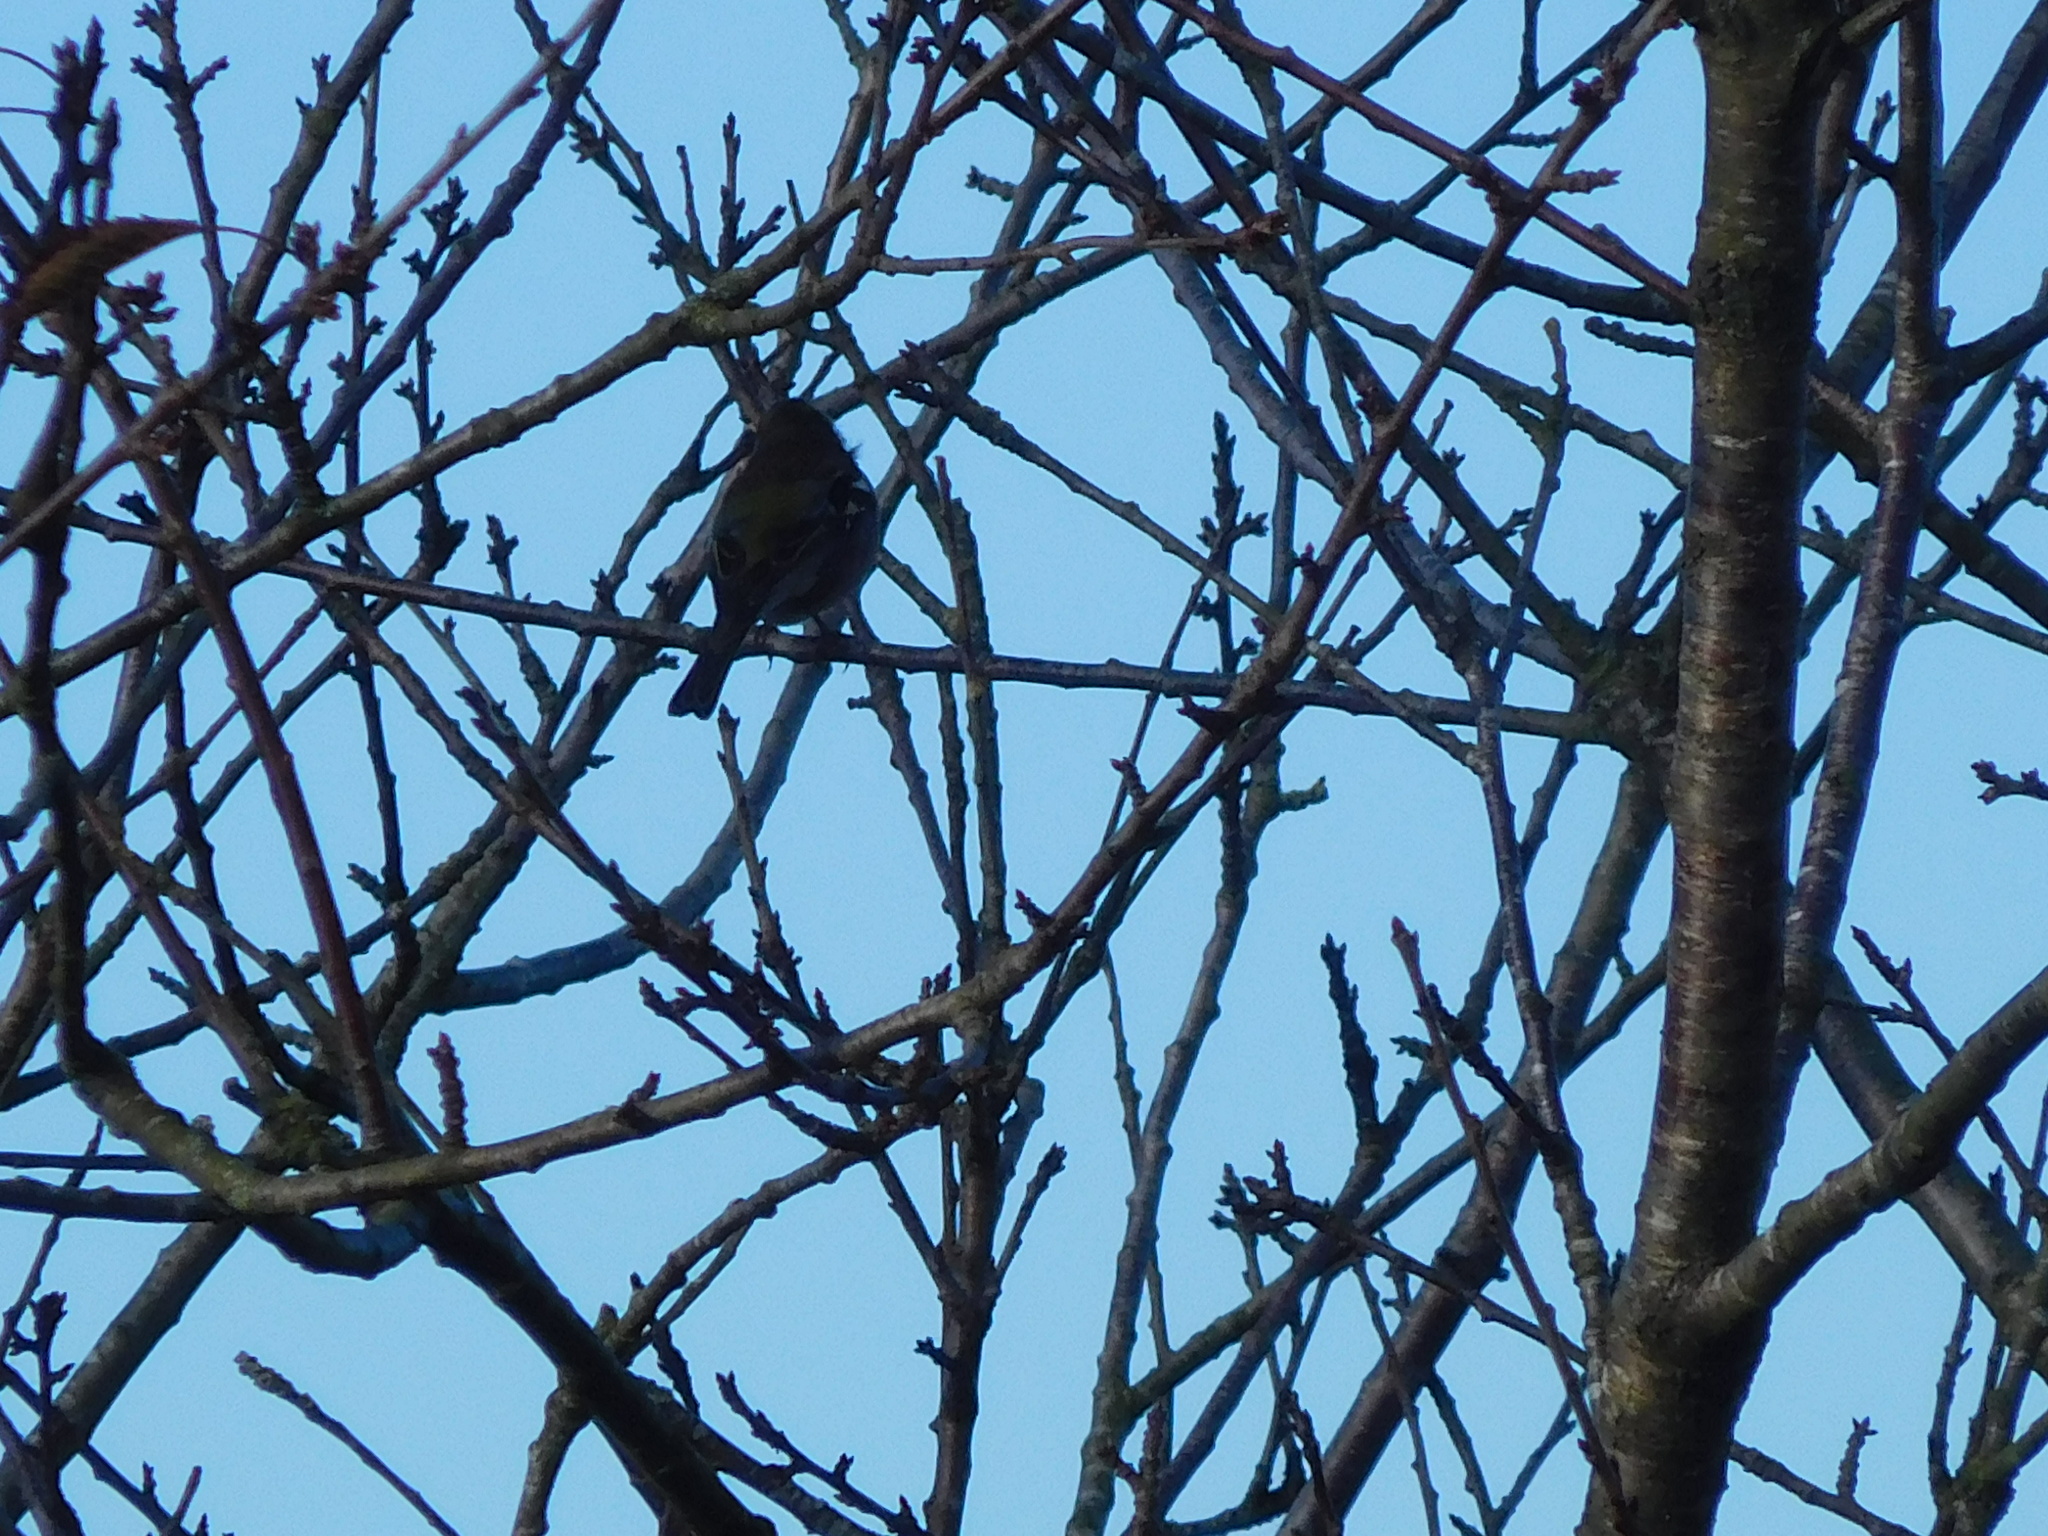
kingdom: Animalia
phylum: Chordata
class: Aves
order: Passeriformes
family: Fringillidae
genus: Fringilla
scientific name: Fringilla coelebs
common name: Common chaffinch
